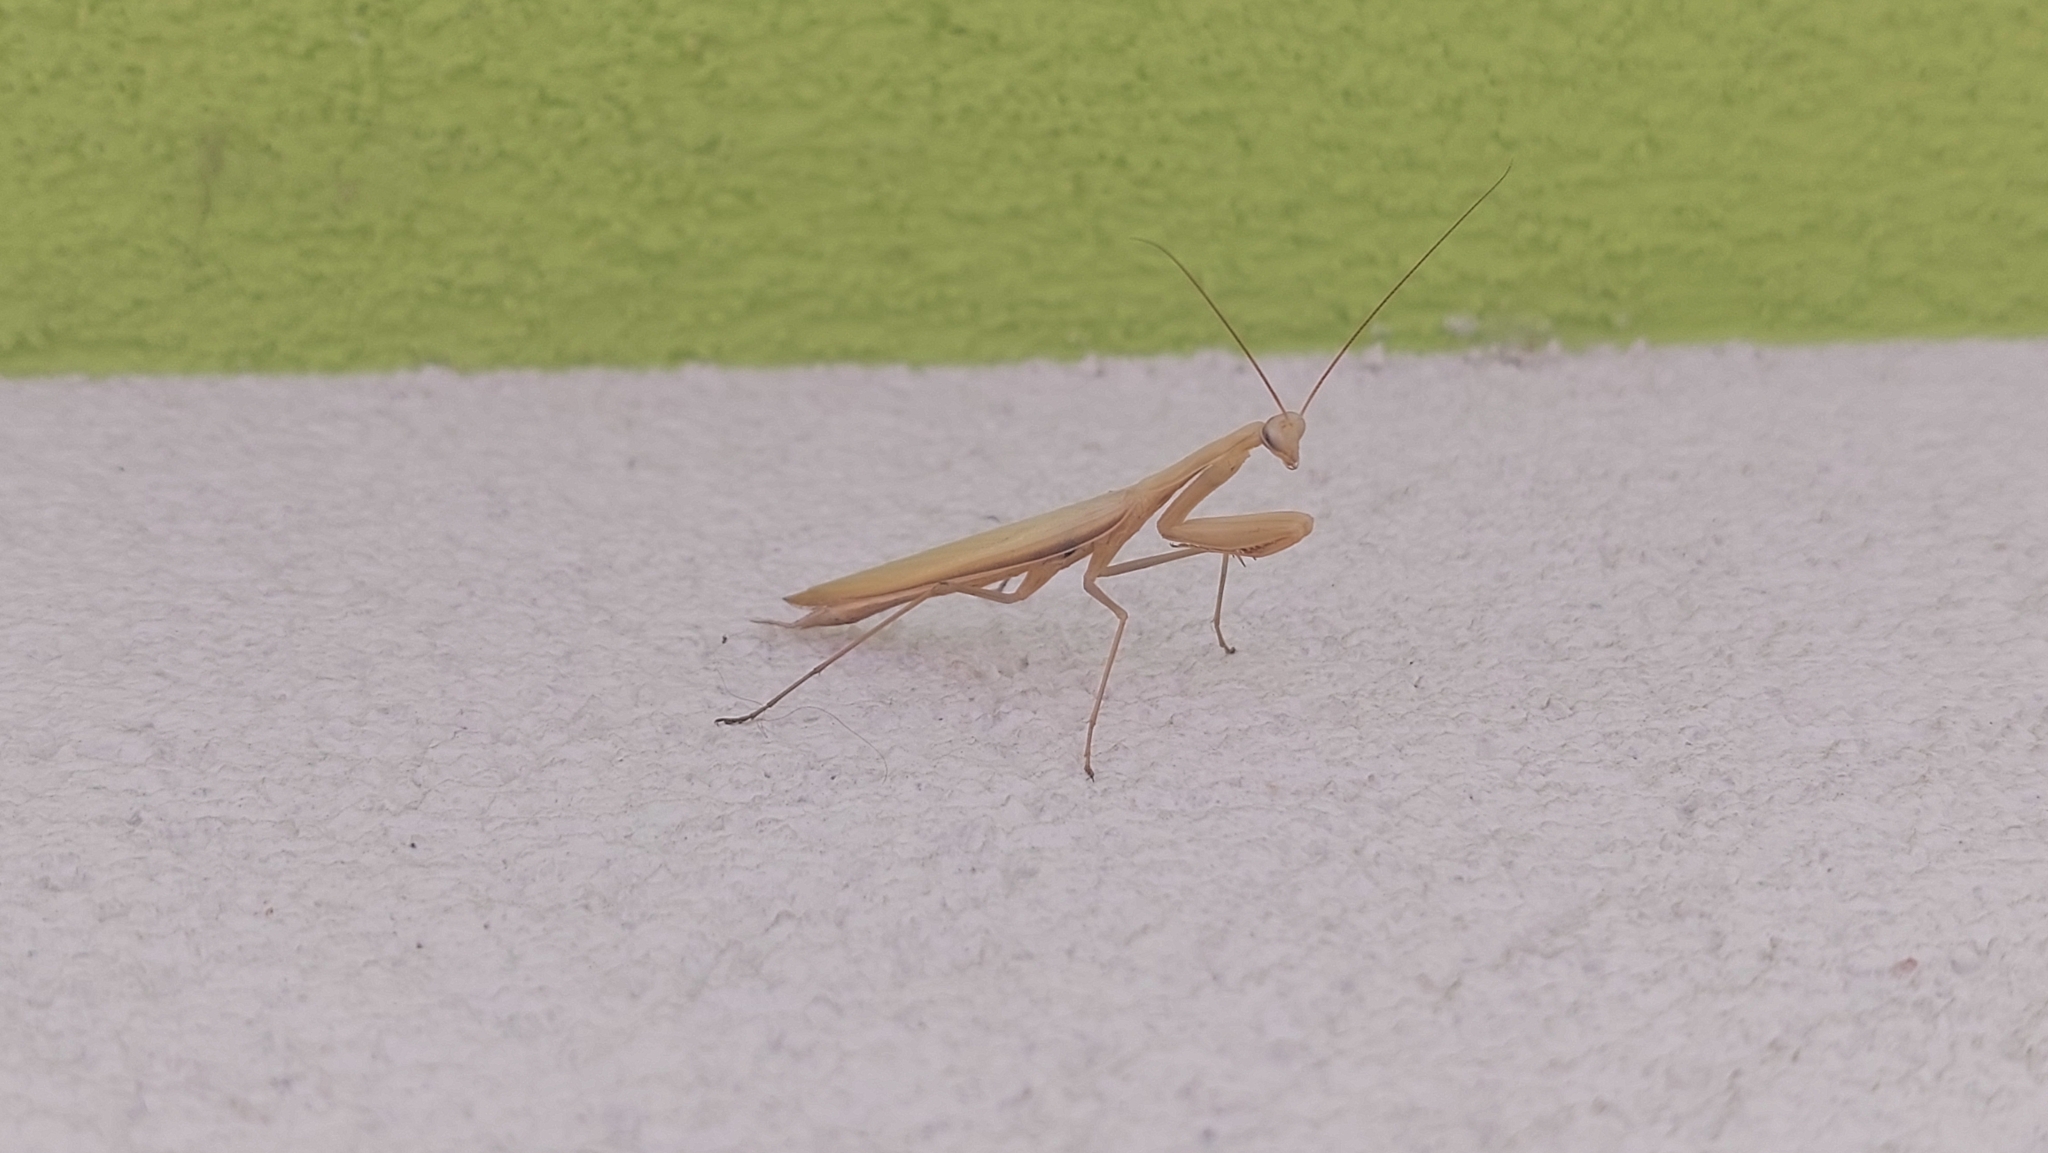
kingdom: Animalia
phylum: Arthropoda
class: Insecta
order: Mantodea
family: Mantidae
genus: Mantis
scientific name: Mantis religiosa
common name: Praying mantis
